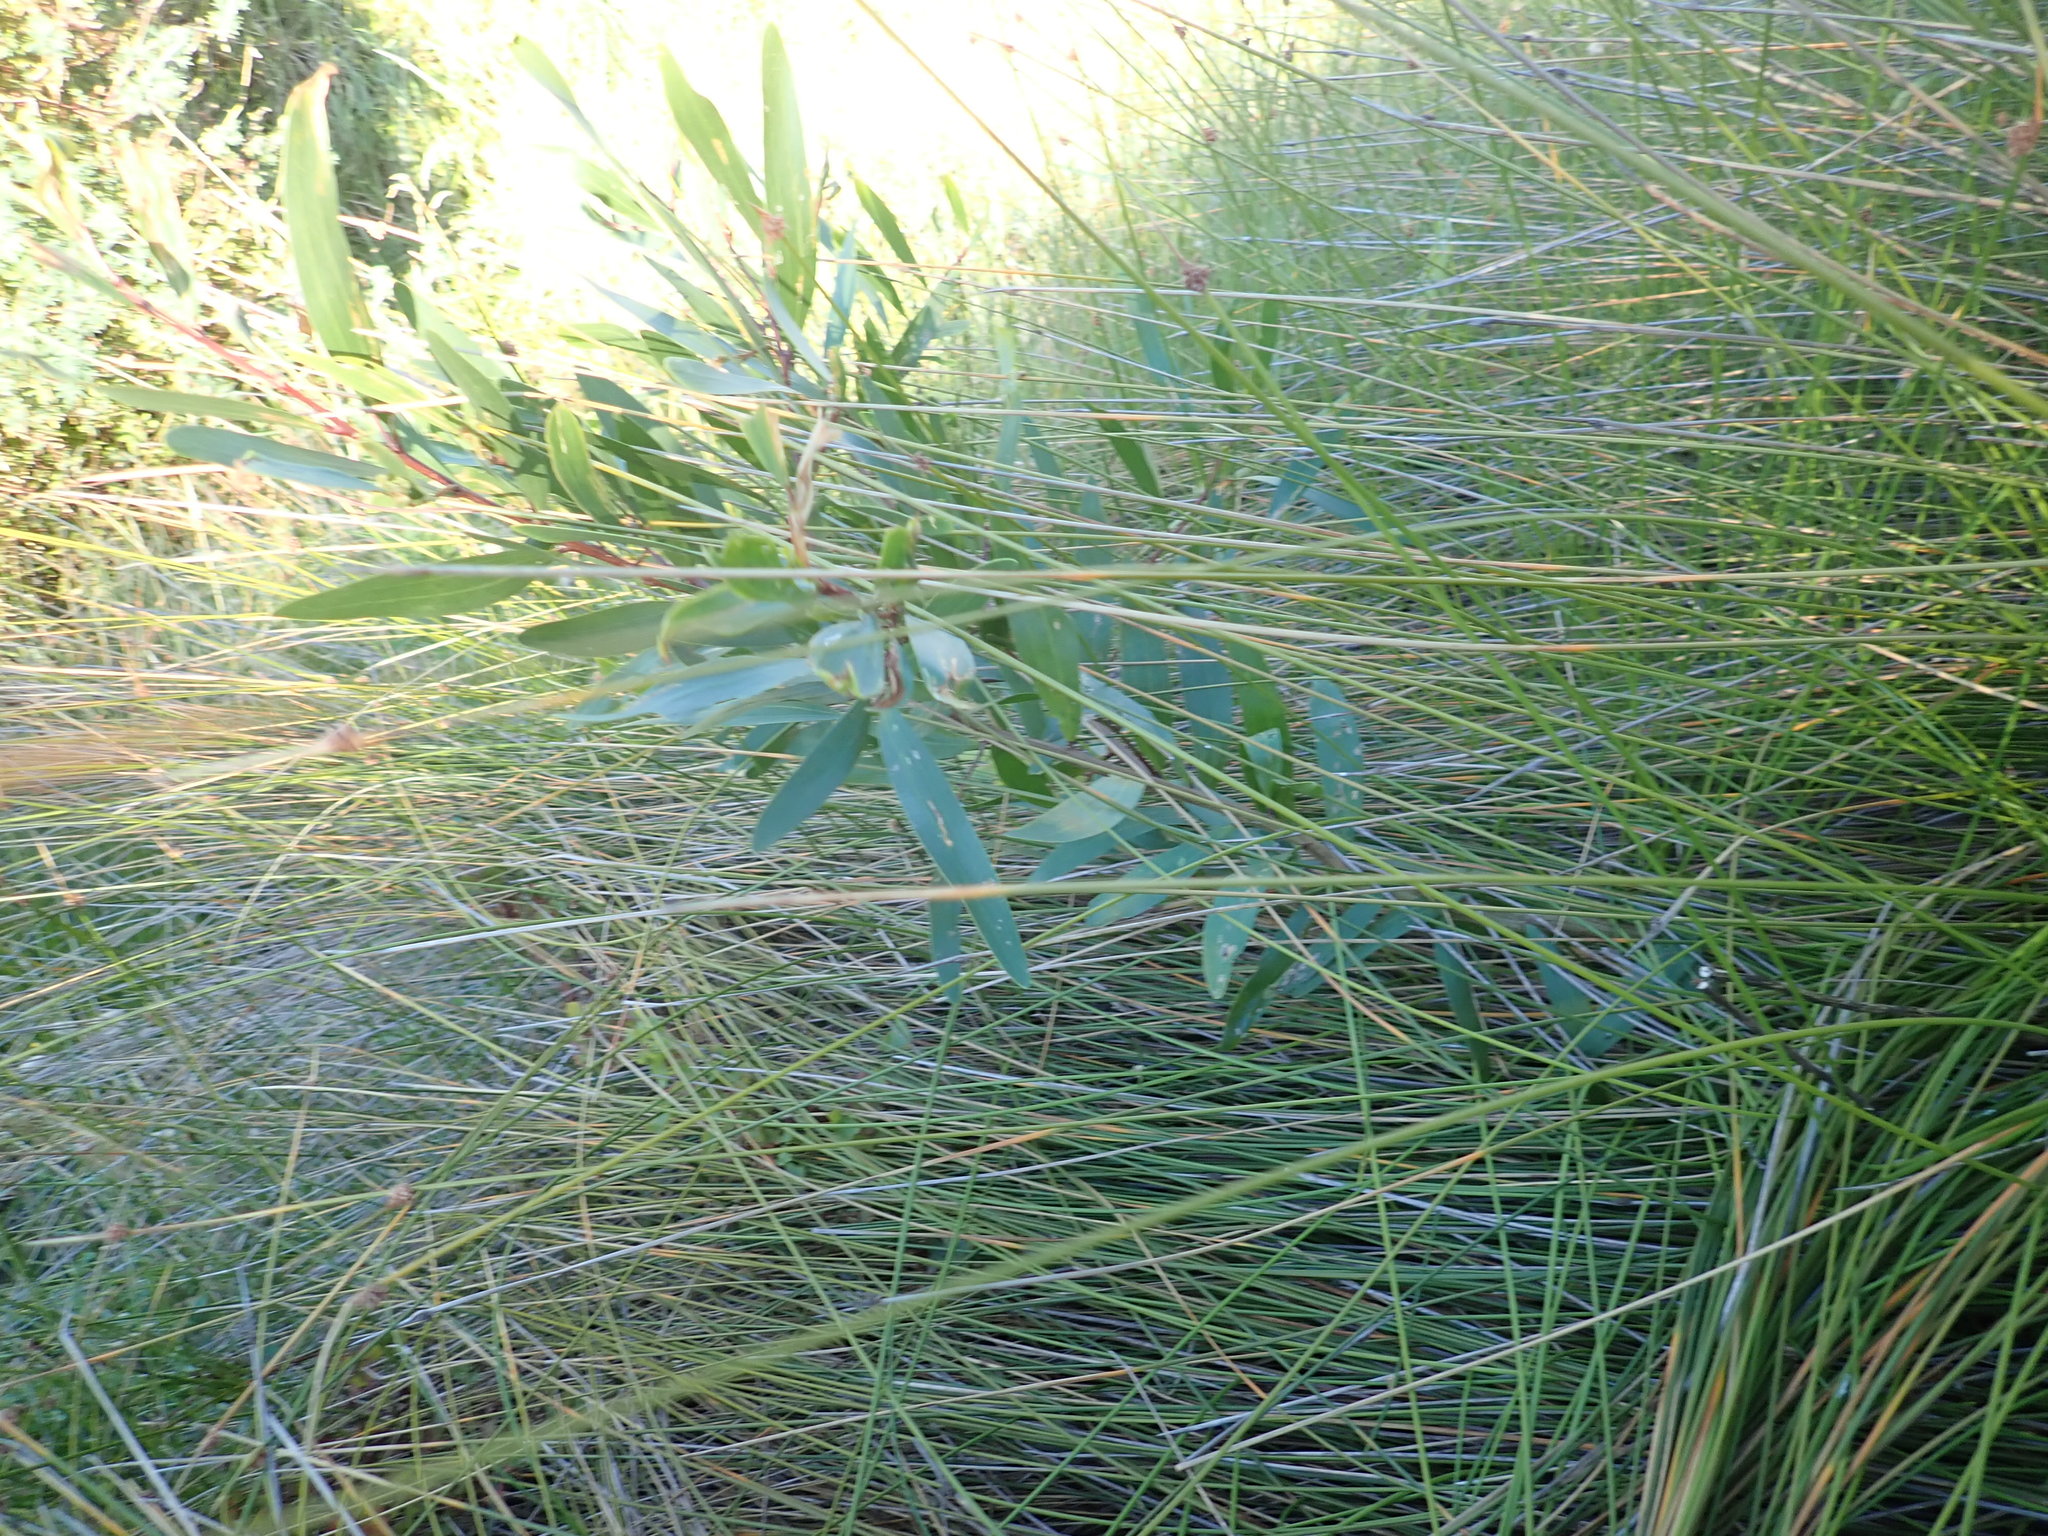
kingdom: Plantae
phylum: Tracheophyta
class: Magnoliopsida
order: Fabales
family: Fabaceae
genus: Acacia
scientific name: Acacia longifolia
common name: Sydney golden wattle
